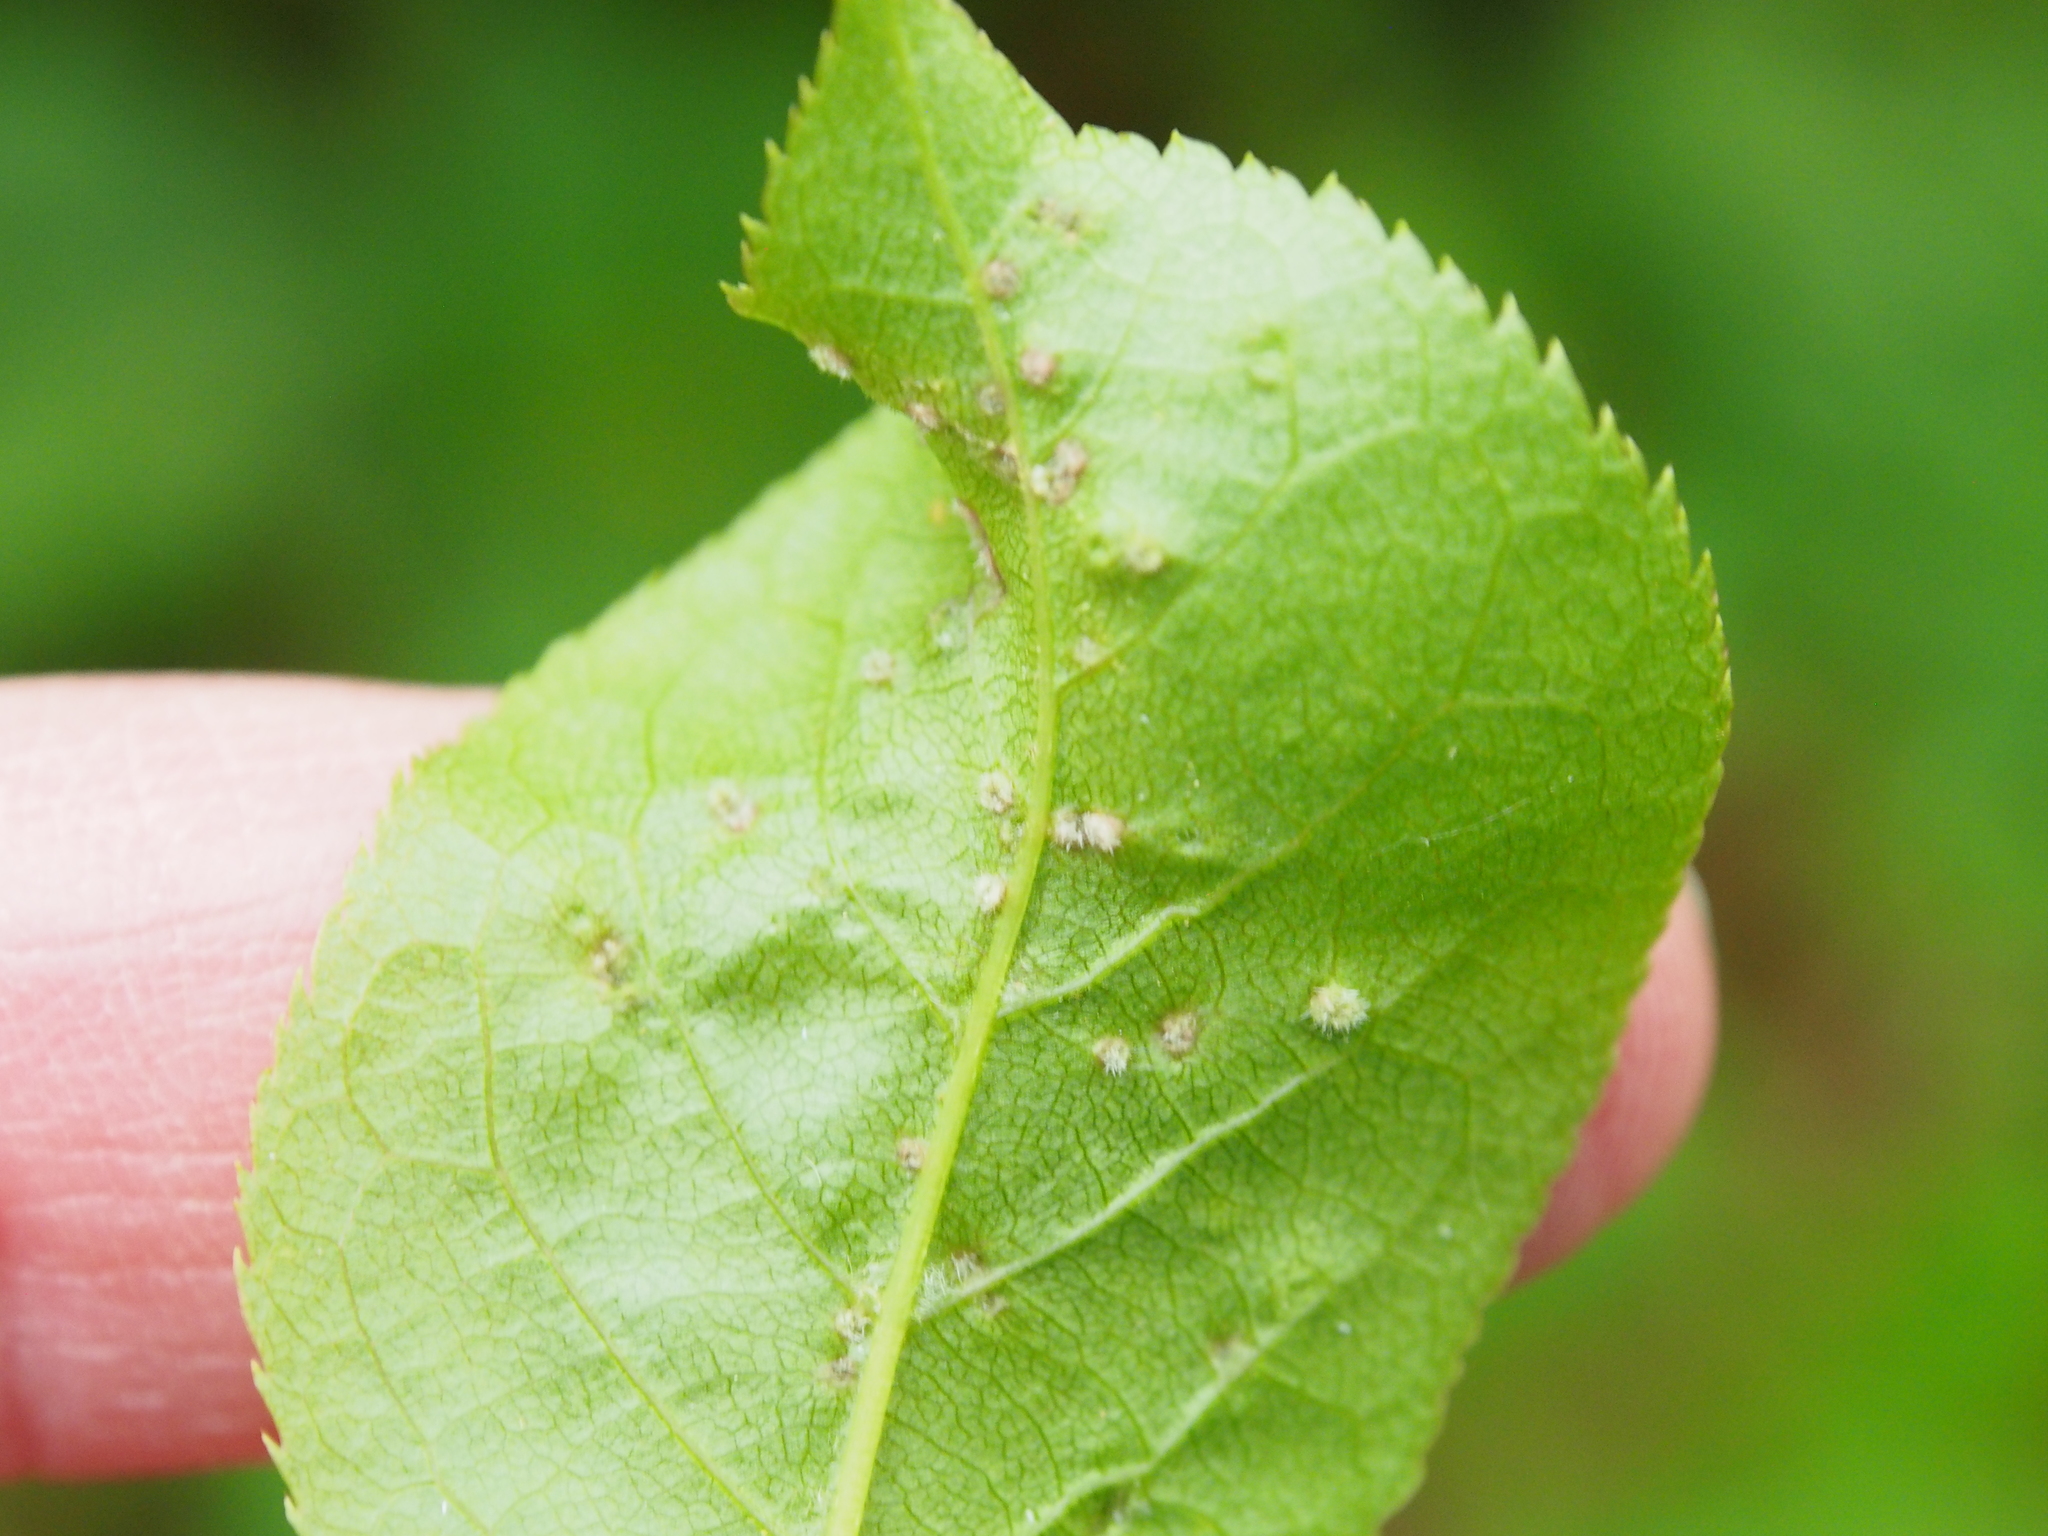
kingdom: Animalia
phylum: Arthropoda
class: Arachnida
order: Trombidiformes
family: Eriophyidae
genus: Eriophyes
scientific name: Eriophyes emarginatae
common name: Plum leaf gall mite
